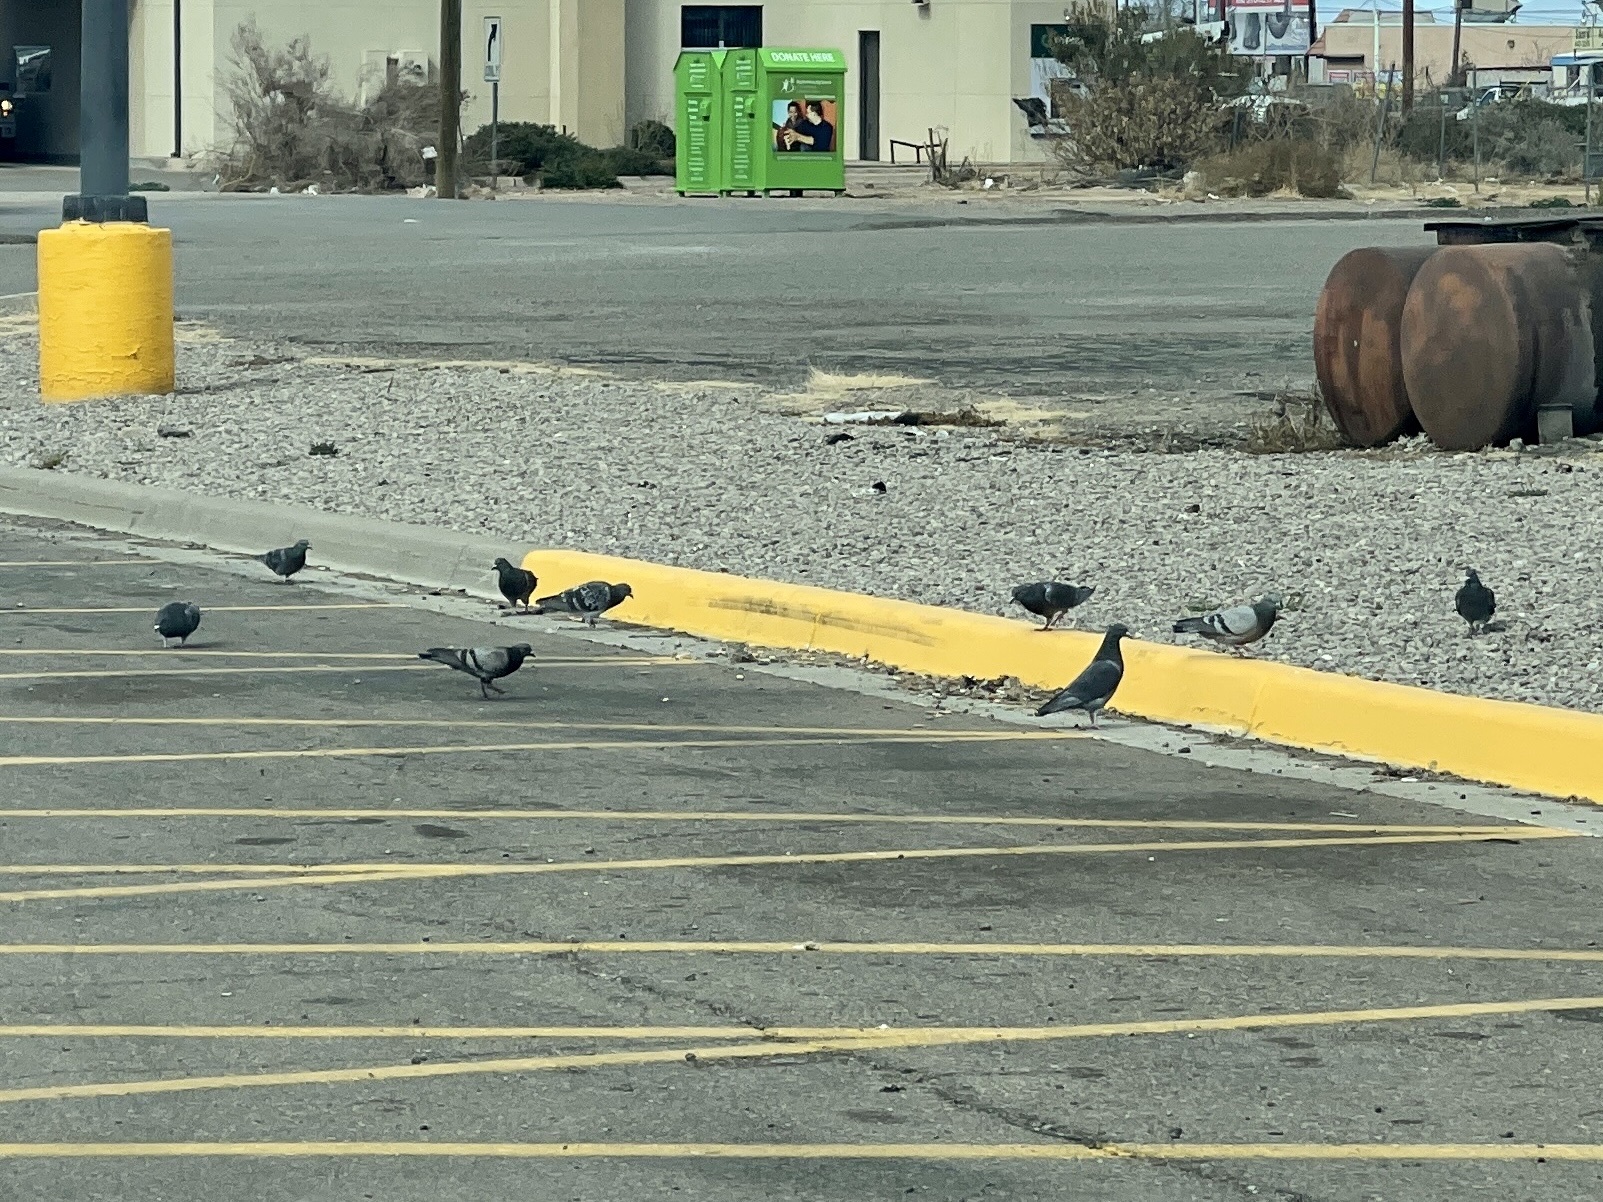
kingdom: Animalia
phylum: Chordata
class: Aves
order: Columbiformes
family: Columbidae
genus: Columba
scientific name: Columba livia
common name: Rock pigeon
